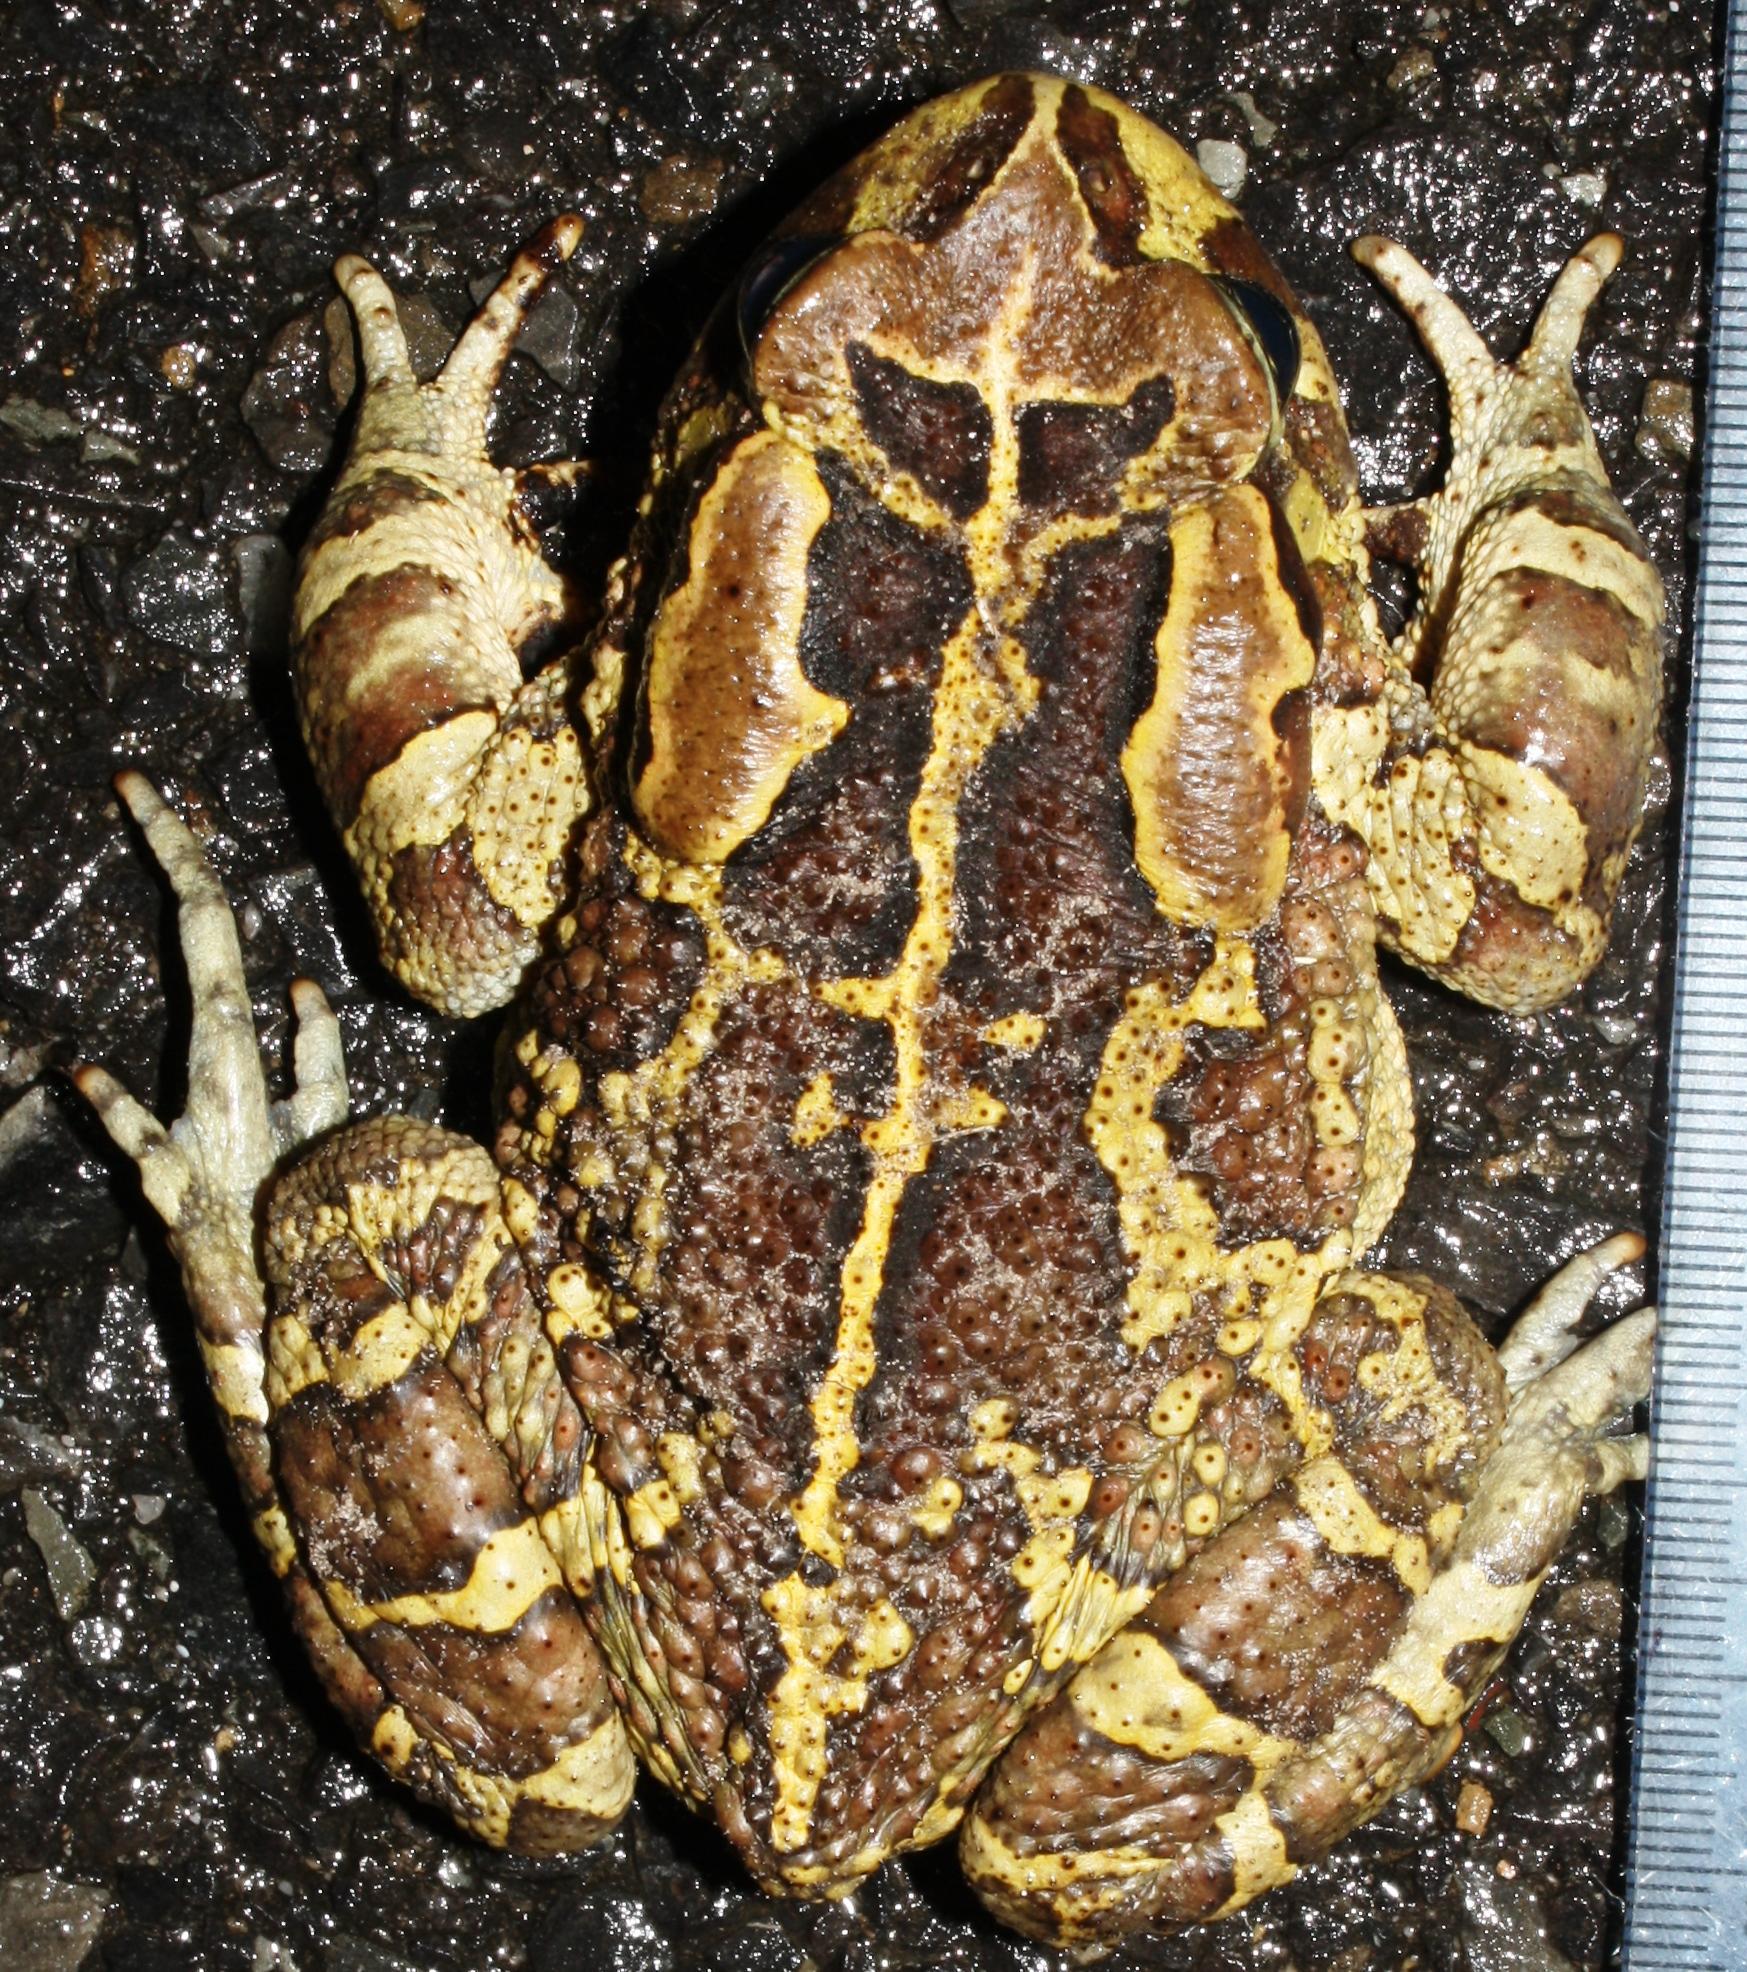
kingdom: Animalia
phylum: Chordata
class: Amphibia
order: Anura
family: Bufonidae
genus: Sclerophrys
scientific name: Sclerophrys pantherina
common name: Panther toad
